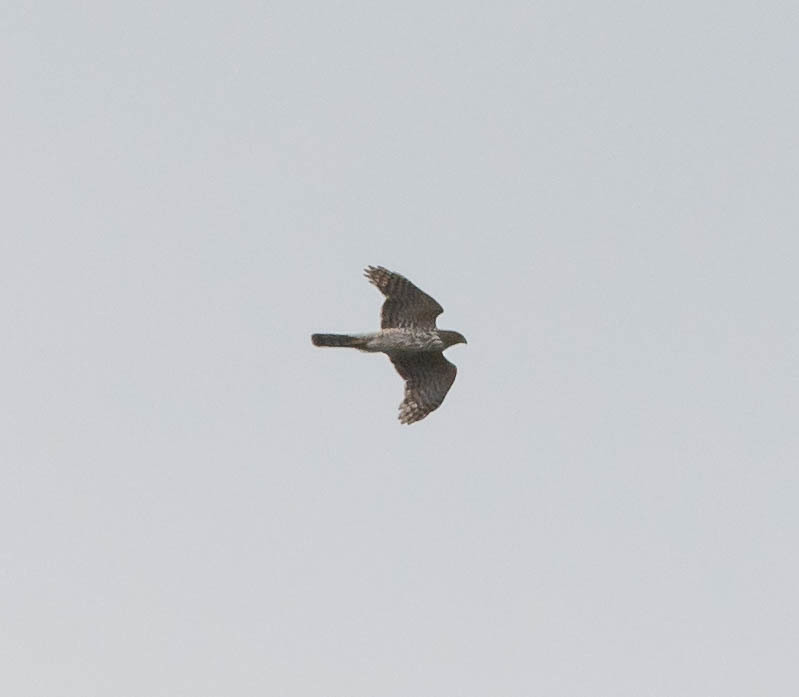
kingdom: Animalia
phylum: Chordata
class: Aves
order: Accipitriformes
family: Accipitridae
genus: Accipiter
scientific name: Accipiter cooperii
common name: Cooper's hawk
